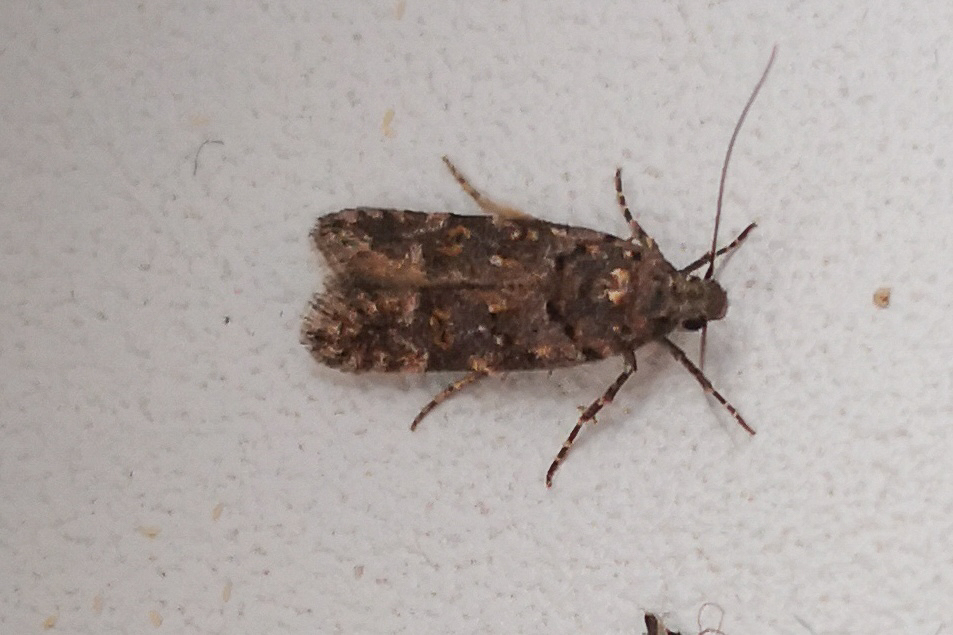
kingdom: Animalia
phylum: Arthropoda
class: Insecta
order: Lepidoptera
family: Gelechiidae
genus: Teleiopsis
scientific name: Teleiopsis diffinis
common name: Large groundling
